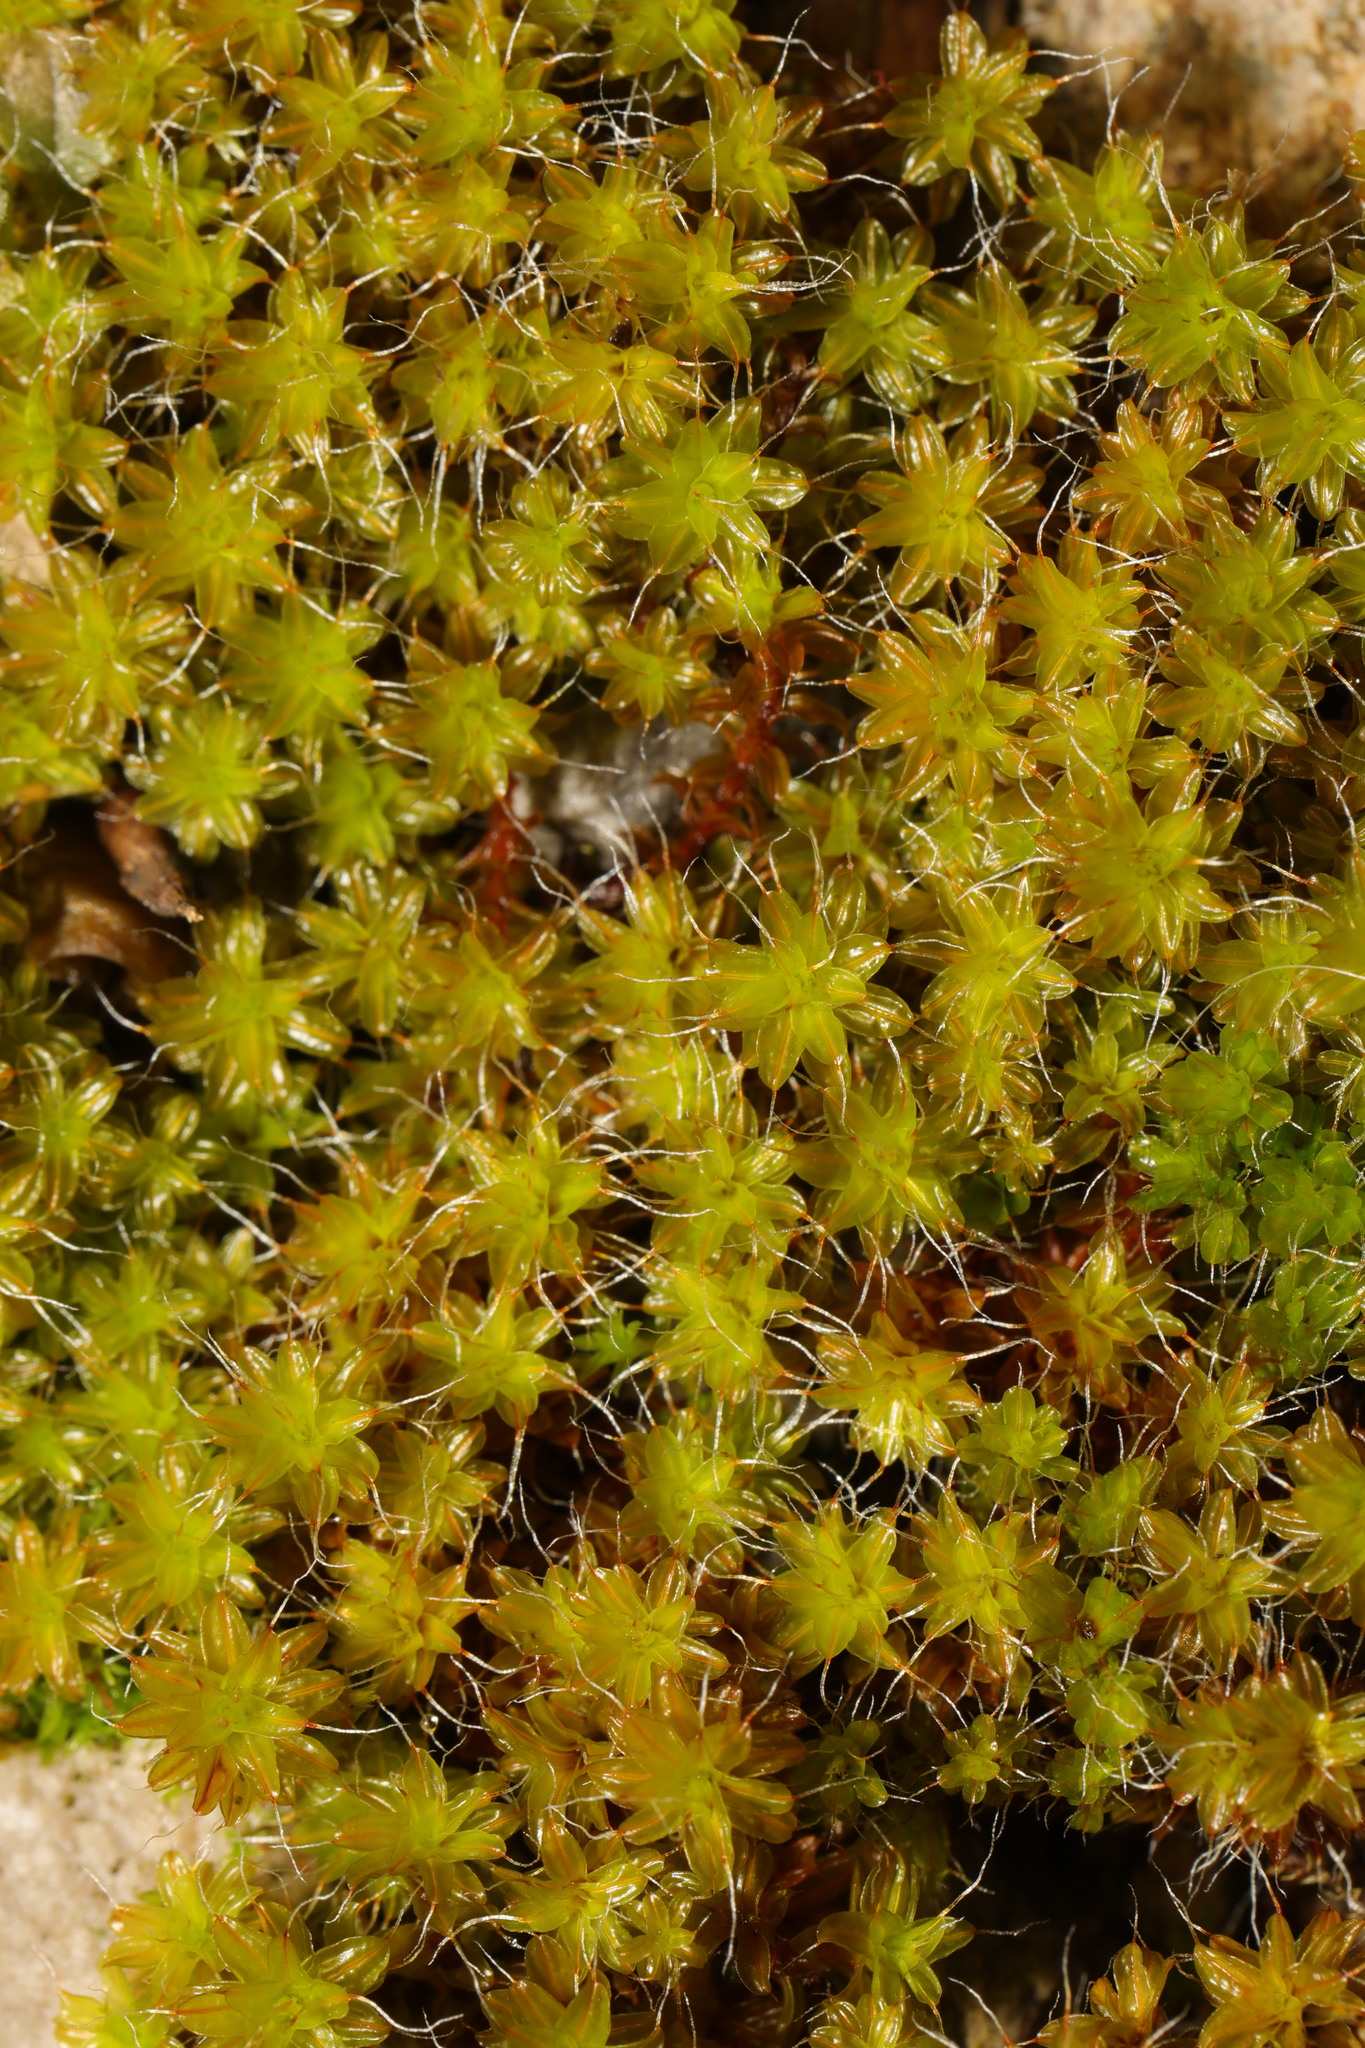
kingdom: Plantae
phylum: Bryophyta
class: Bryopsida
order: Pottiales
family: Pottiaceae
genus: Syntrichia
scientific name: Syntrichia ruralis
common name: Sidewalk screw moss
